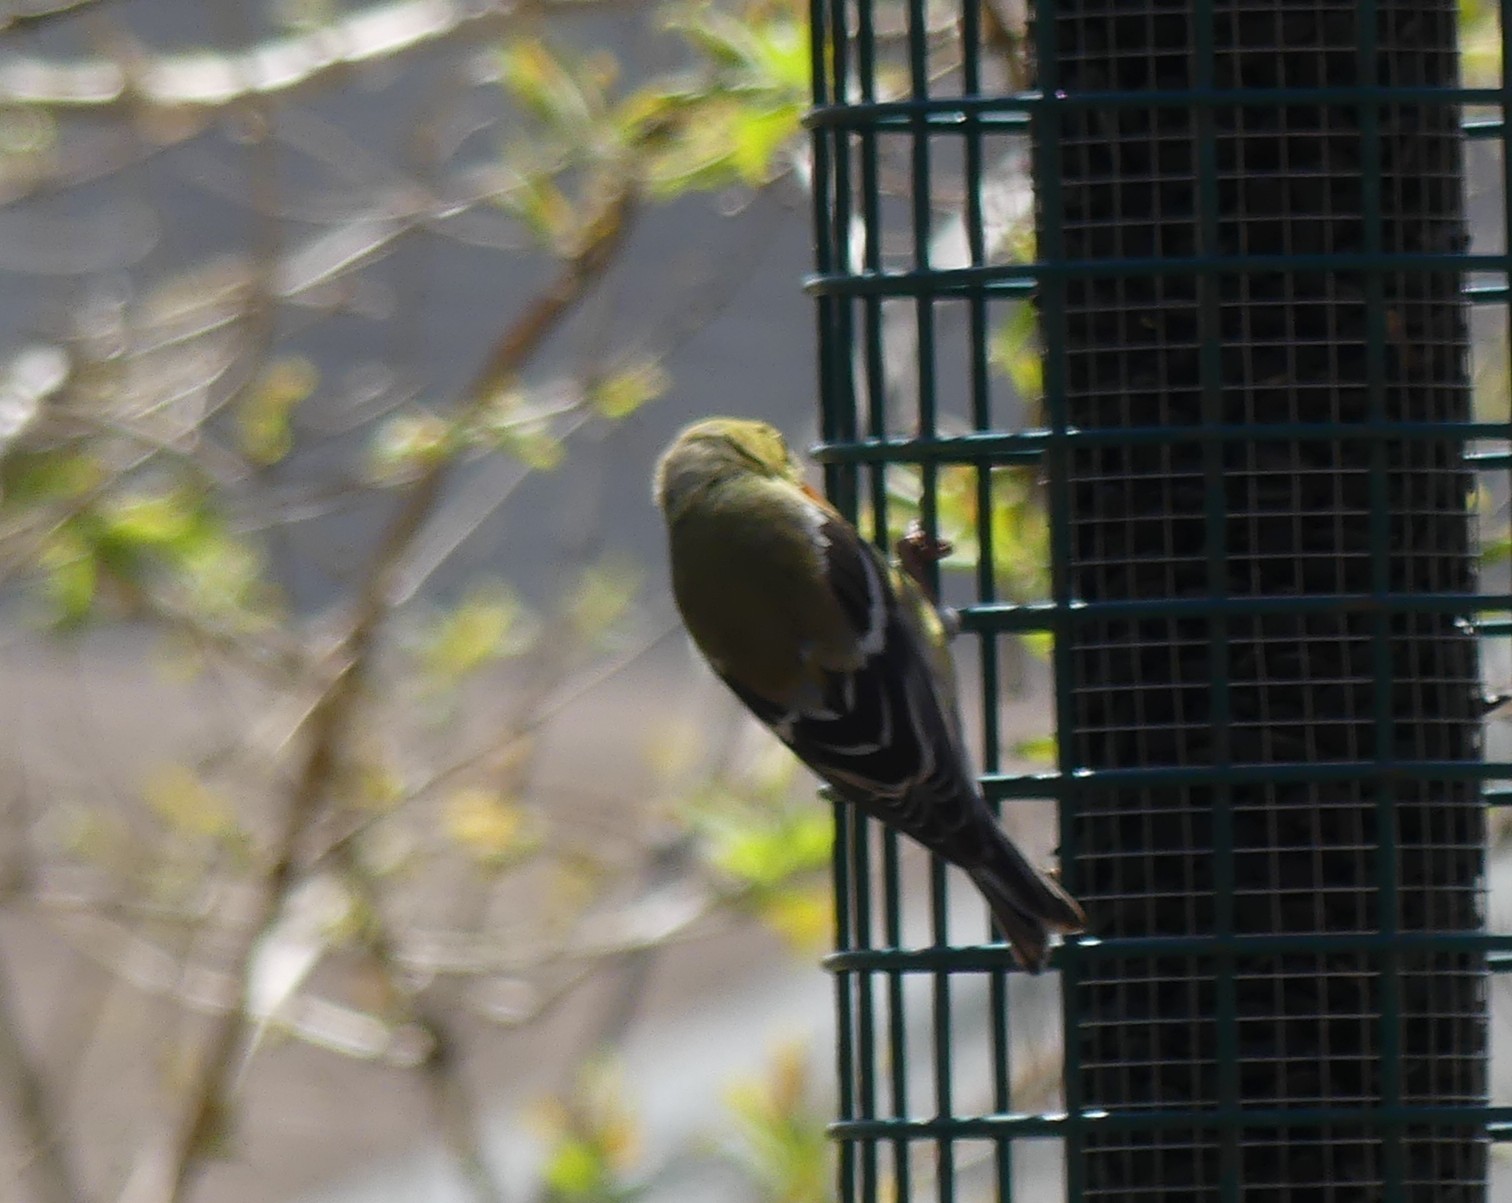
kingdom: Animalia
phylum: Chordata
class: Aves
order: Passeriformes
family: Fringillidae
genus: Spinus
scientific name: Spinus tristis
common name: American goldfinch
